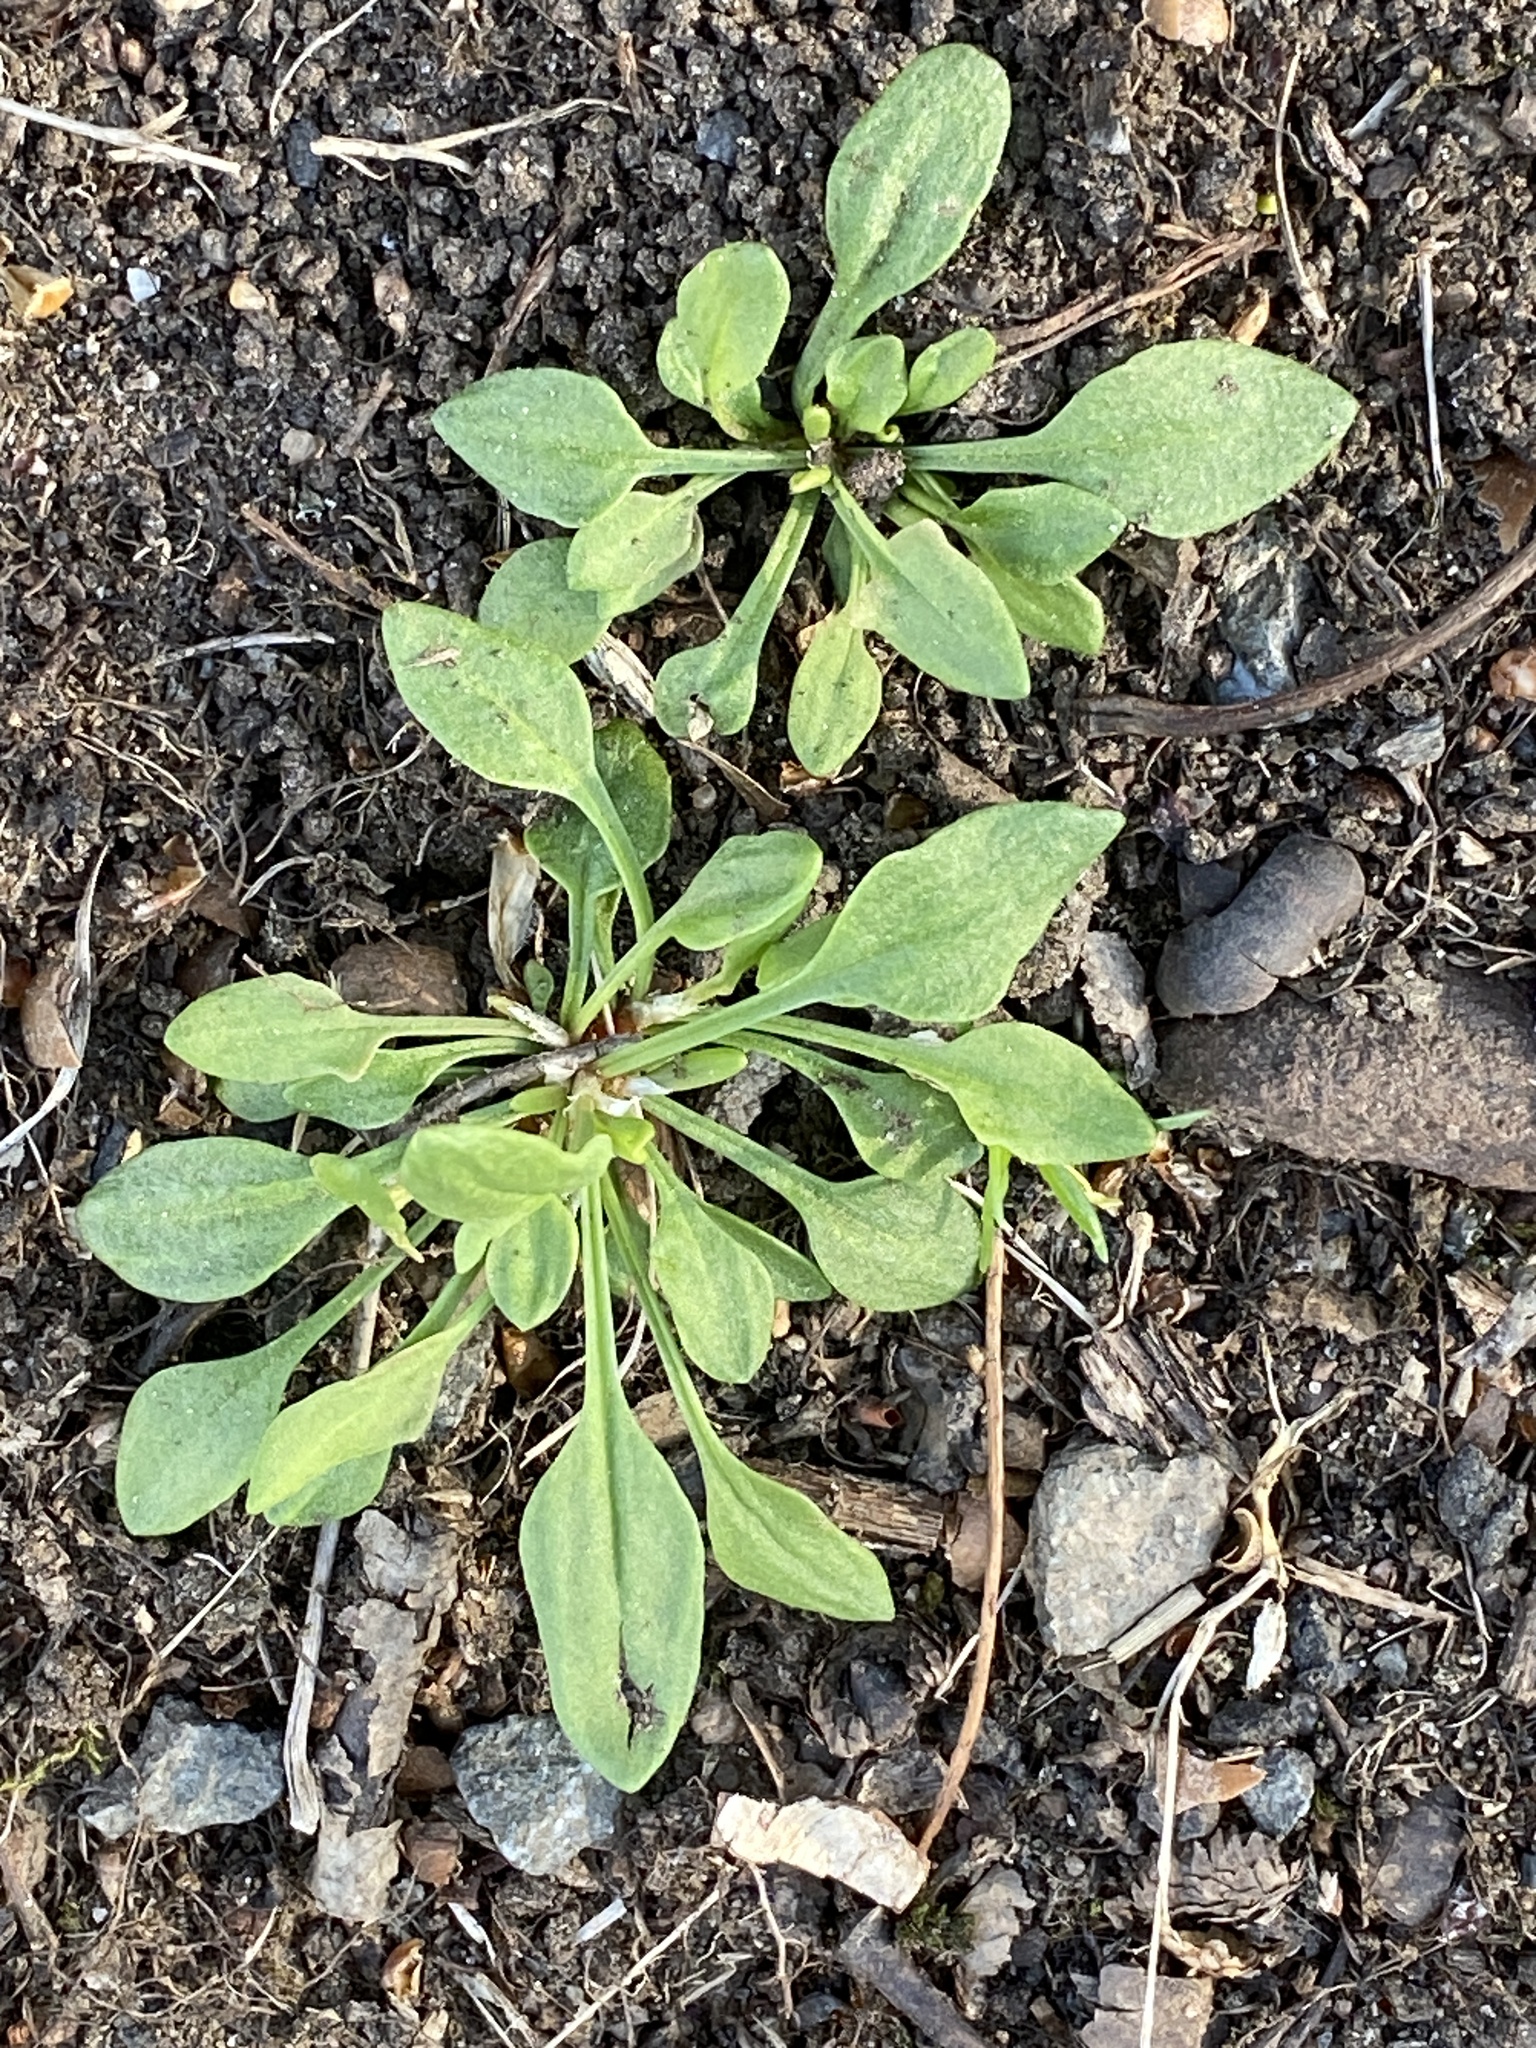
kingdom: Plantae
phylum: Tracheophyta
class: Magnoliopsida
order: Caryophyllales
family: Polygonaceae
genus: Rumex
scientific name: Rumex acetosella
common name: Common sheep sorrel
